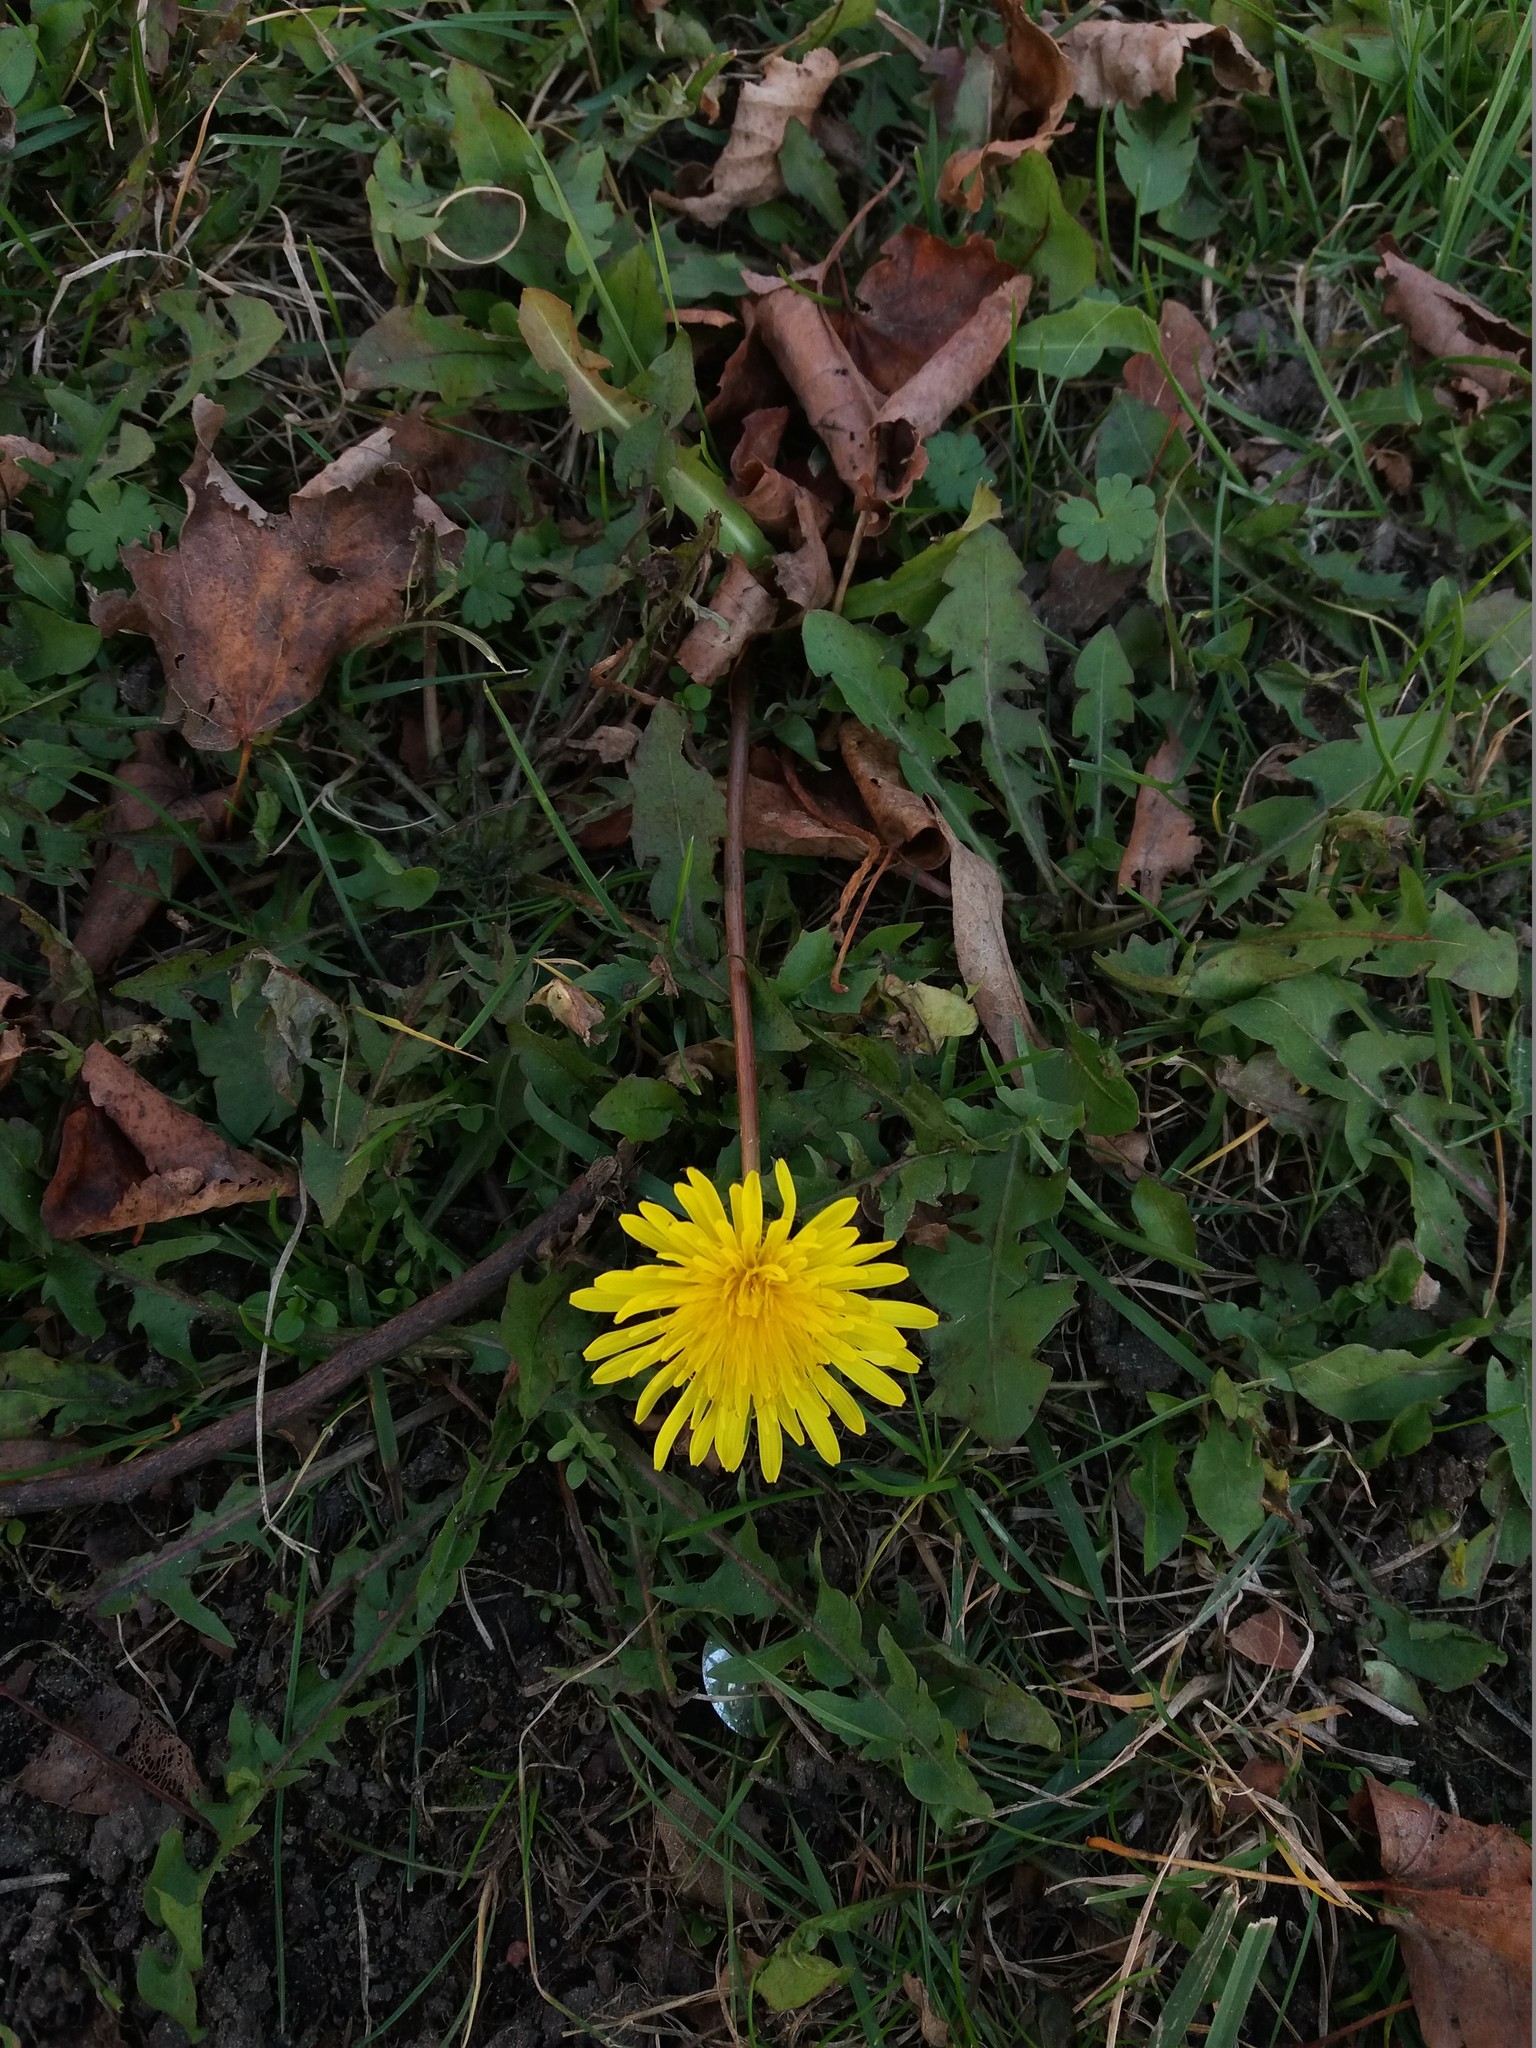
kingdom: Plantae
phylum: Tracheophyta
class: Magnoliopsida
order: Asterales
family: Asteraceae
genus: Taraxacum
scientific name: Taraxacum officinale
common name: Common dandelion
